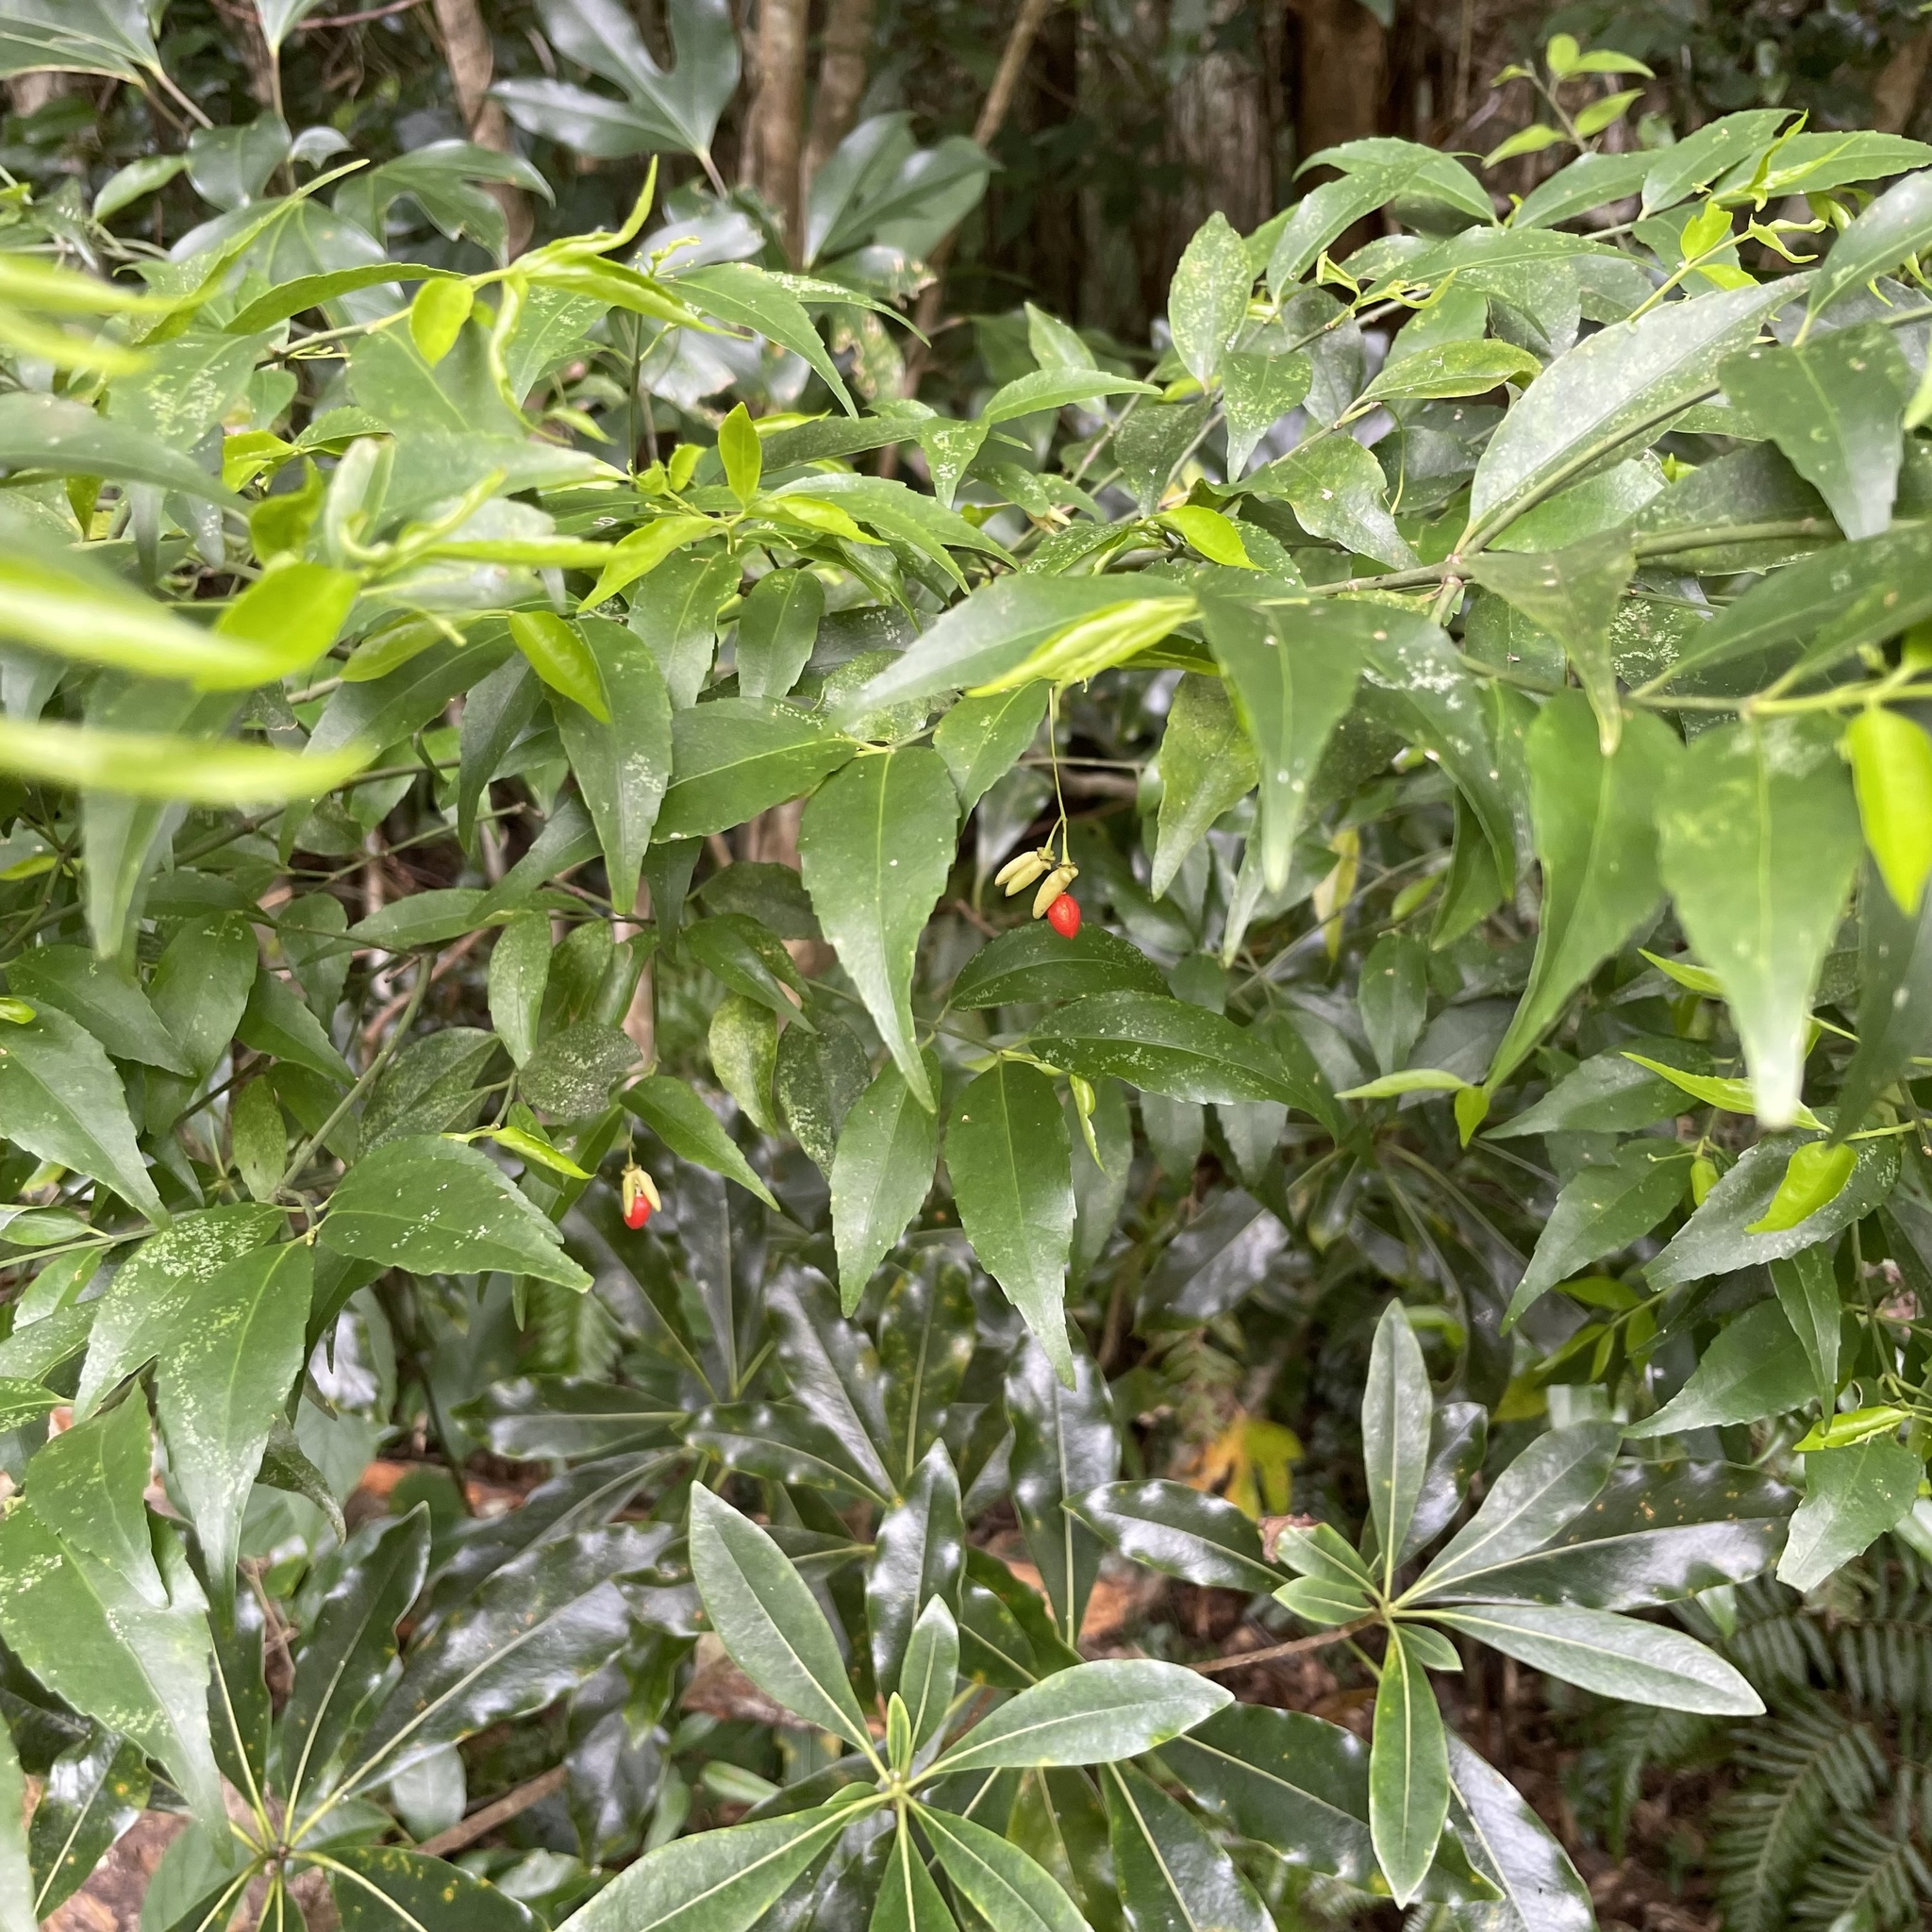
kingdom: Plantae
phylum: Tracheophyta
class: Magnoliopsida
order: Celastrales
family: Celastraceae
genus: Euonymus
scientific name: Euonymus lutchuensis
